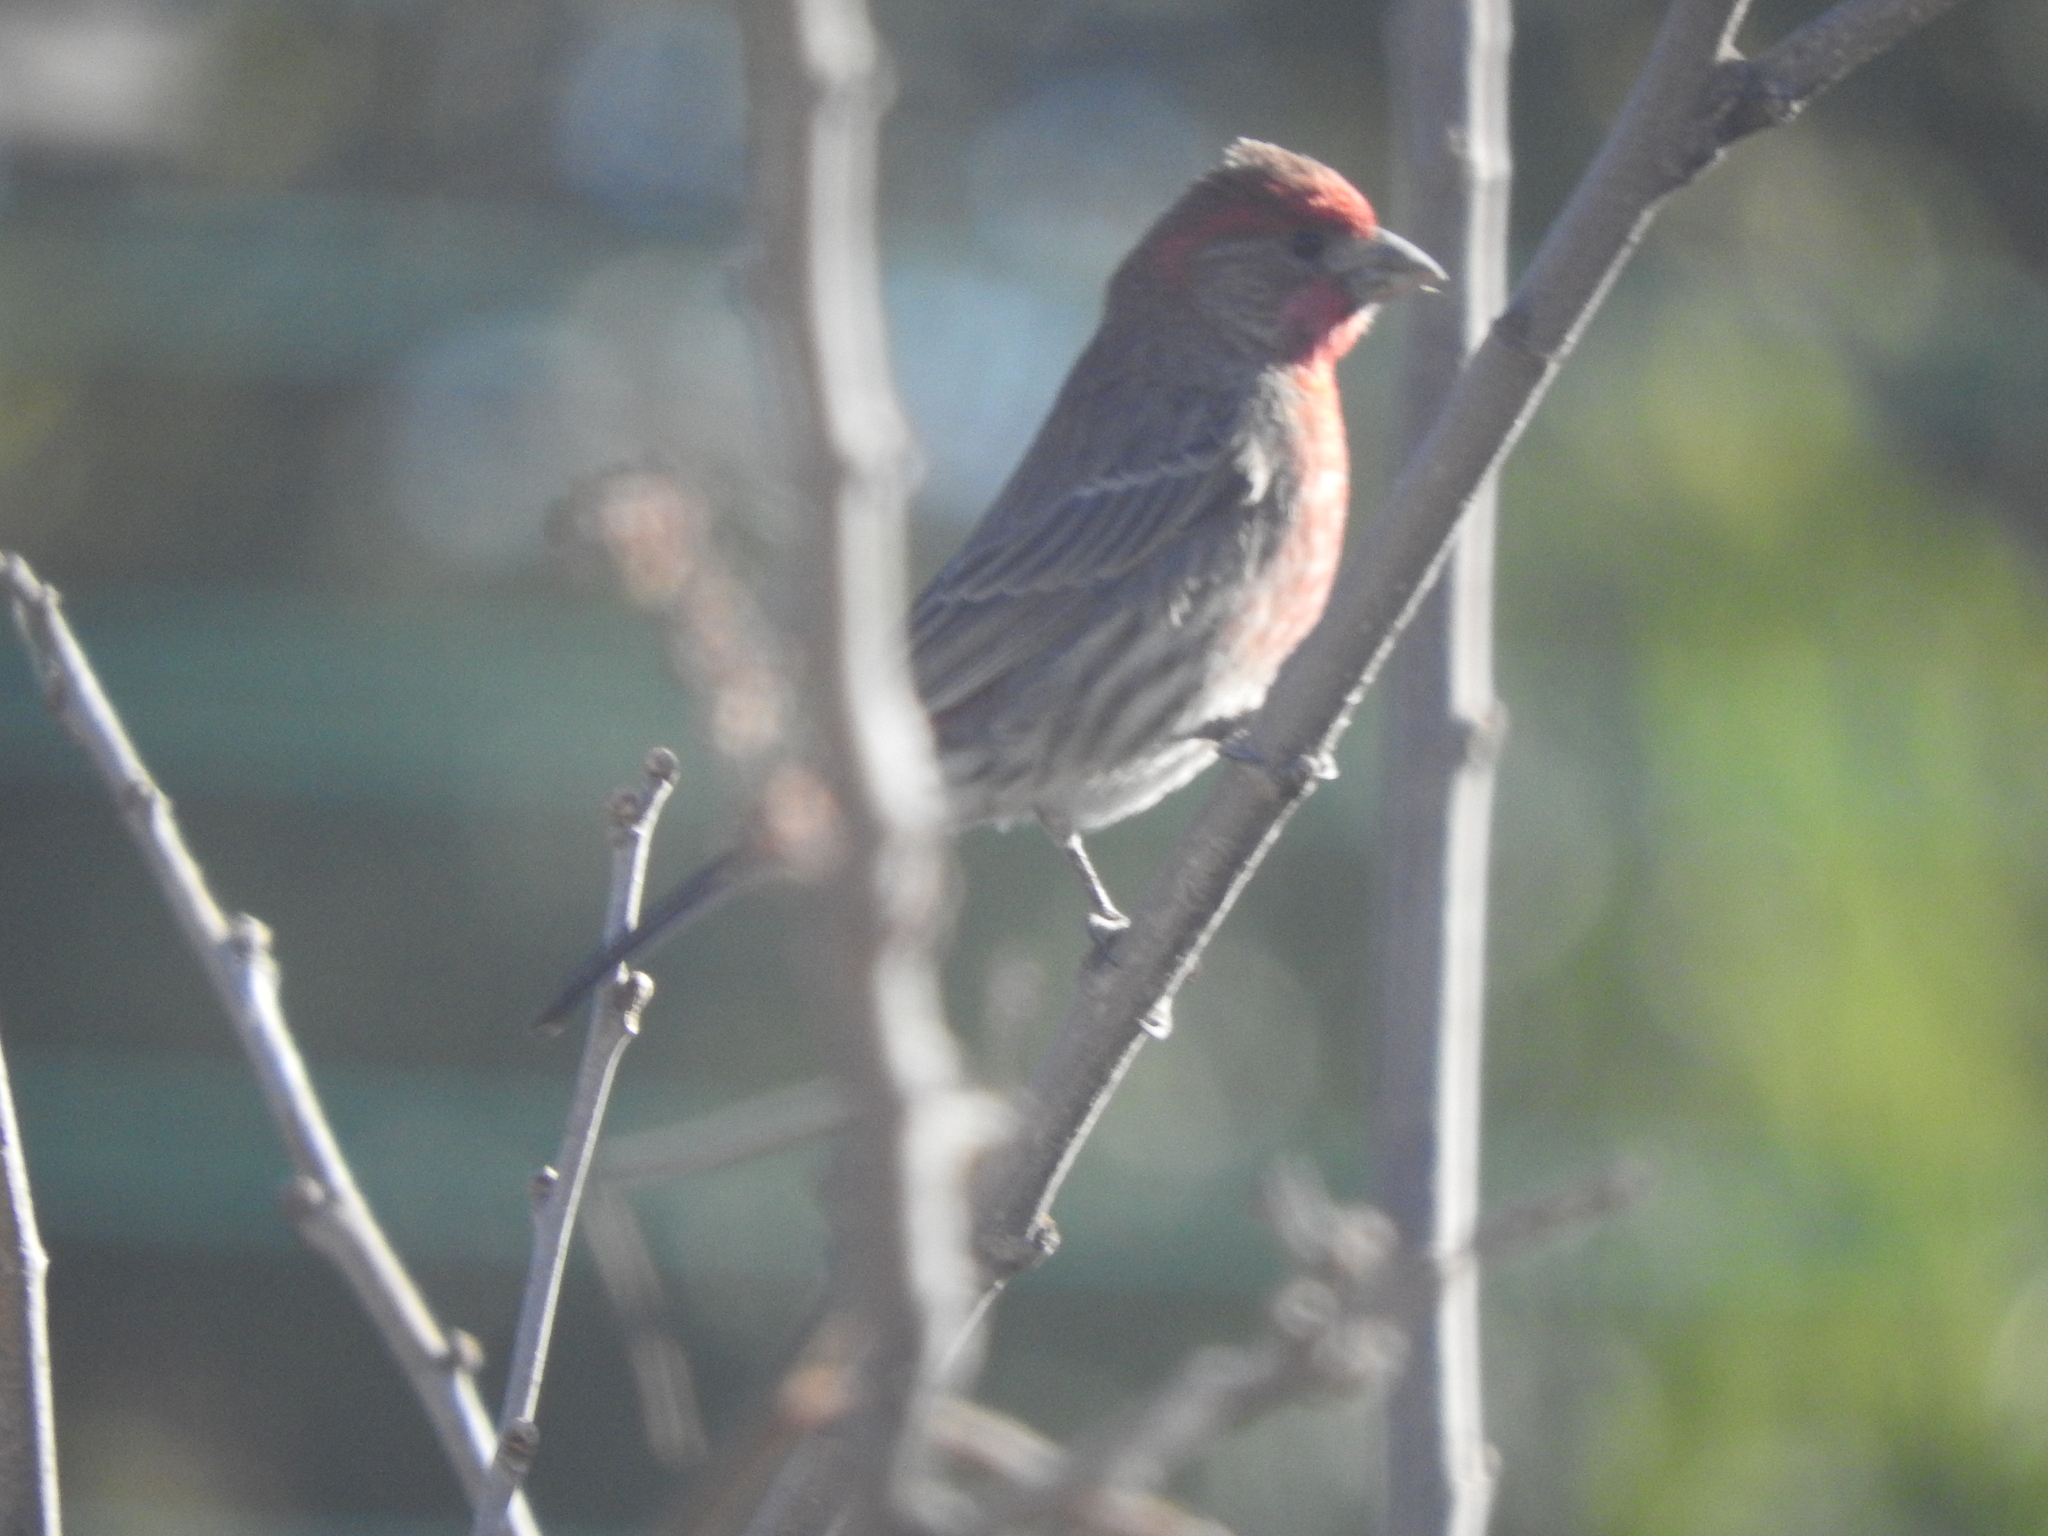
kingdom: Animalia
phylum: Chordata
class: Aves
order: Passeriformes
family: Fringillidae
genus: Haemorhous
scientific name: Haemorhous mexicanus
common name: House finch
